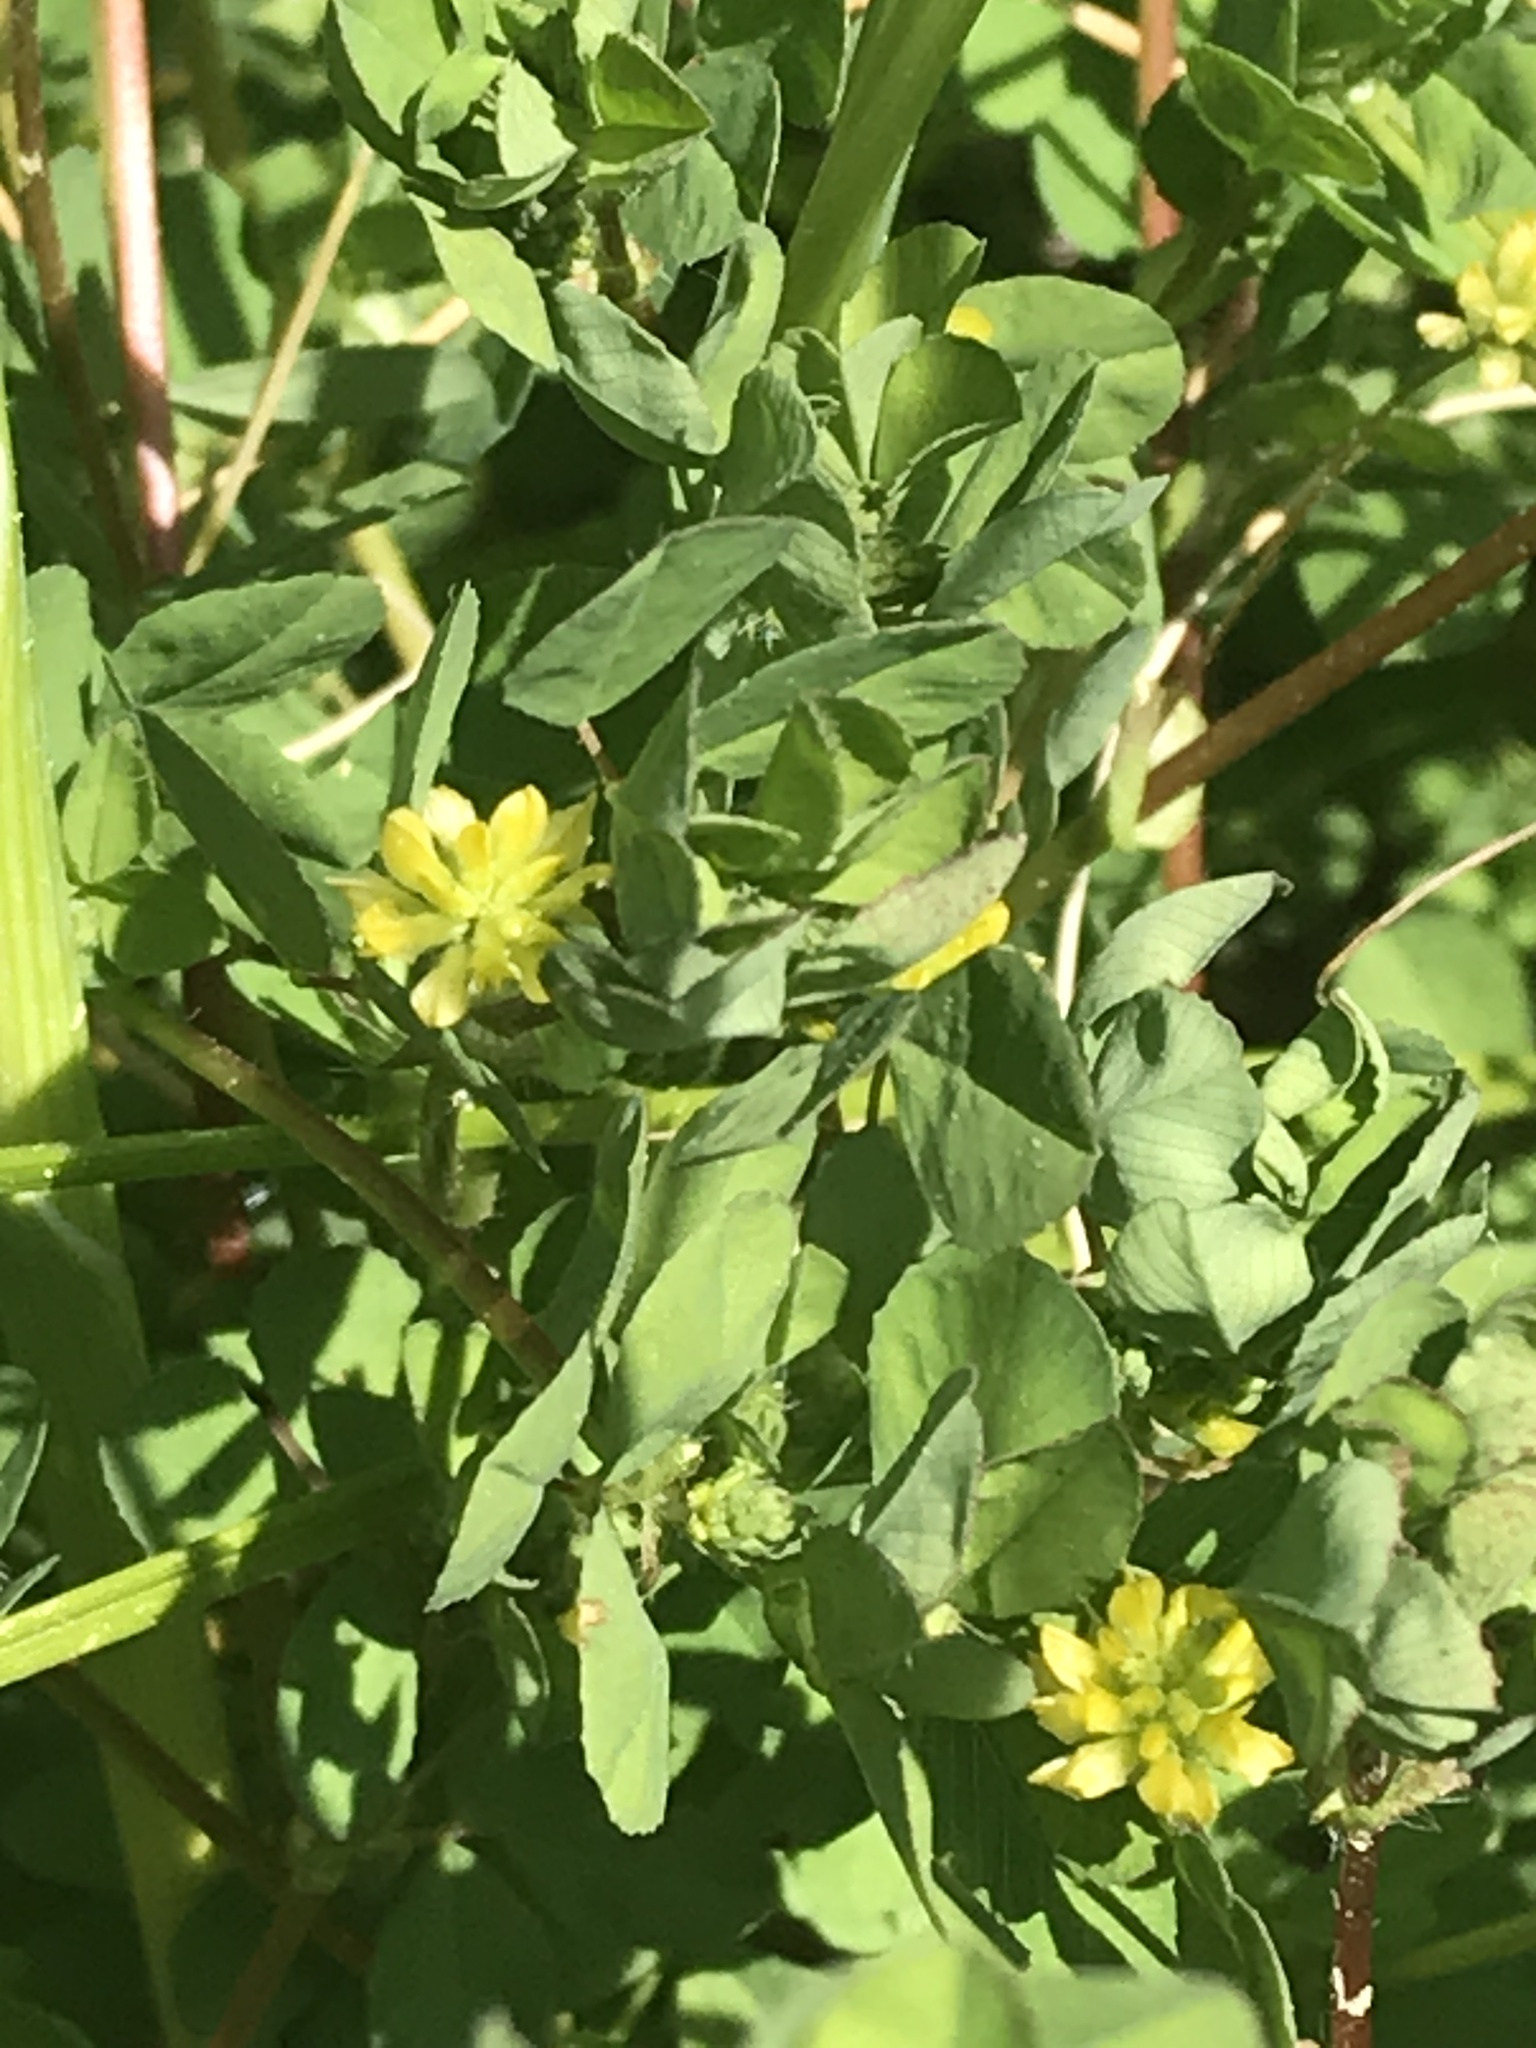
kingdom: Plantae
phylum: Tracheophyta
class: Magnoliopsida
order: Fabales
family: Fabaceae
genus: Trifolium
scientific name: Trifolium dubium
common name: Suckling clover
